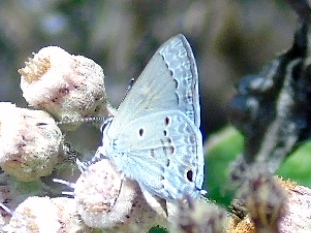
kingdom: Animalia
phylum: Arthropoda
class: Insecta
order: Lepidoptera
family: Lycaenidae
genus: Callicista
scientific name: Callicista columella
